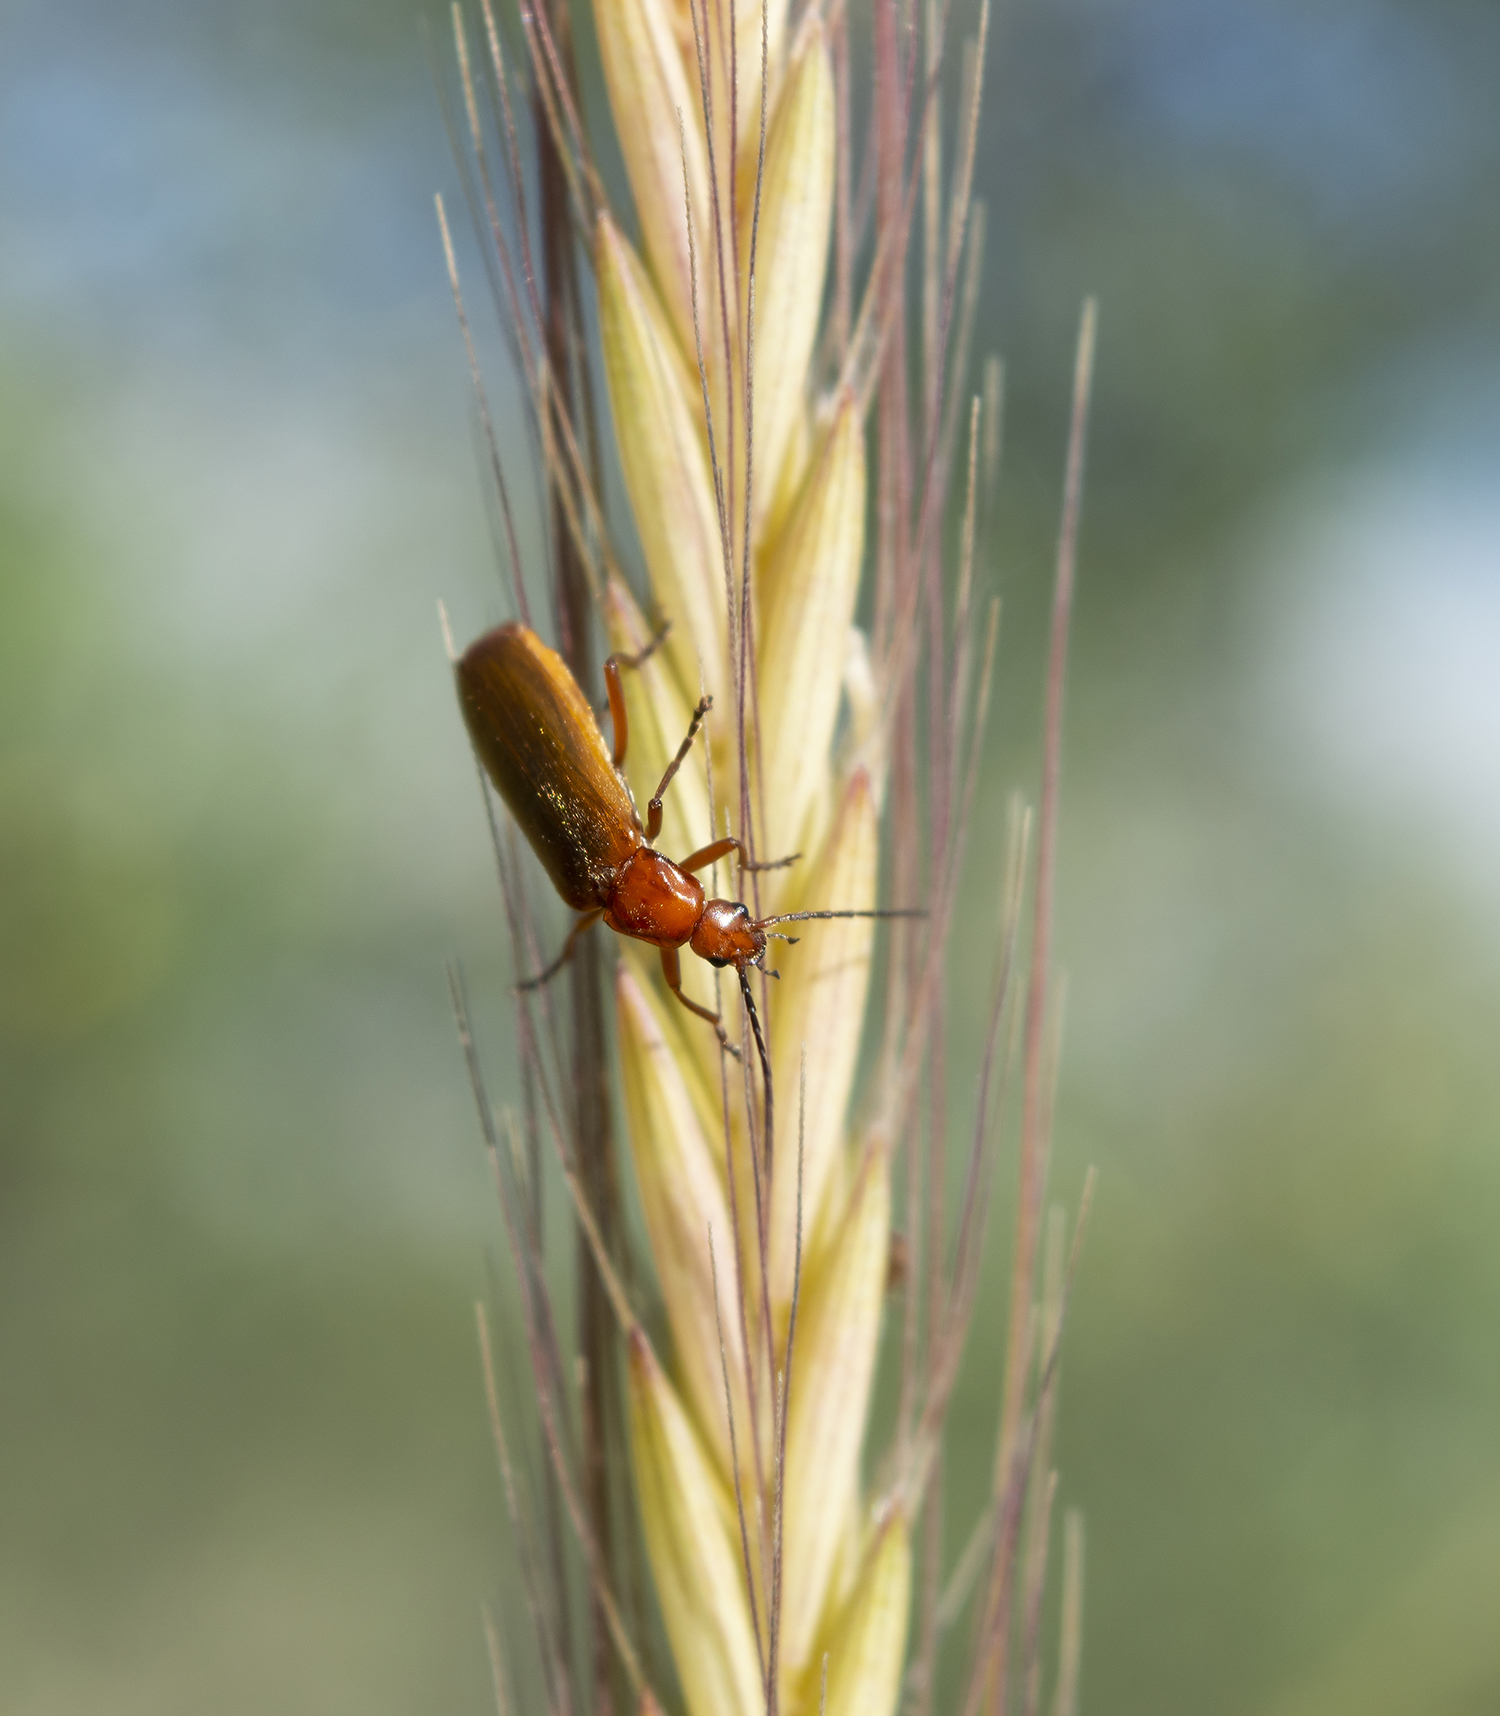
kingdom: Animalia
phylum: Arthropoda
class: Insecta
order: Coleoptera
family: Cantharidae
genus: Rhagonycha
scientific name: Rhagonycha nigritarsis
